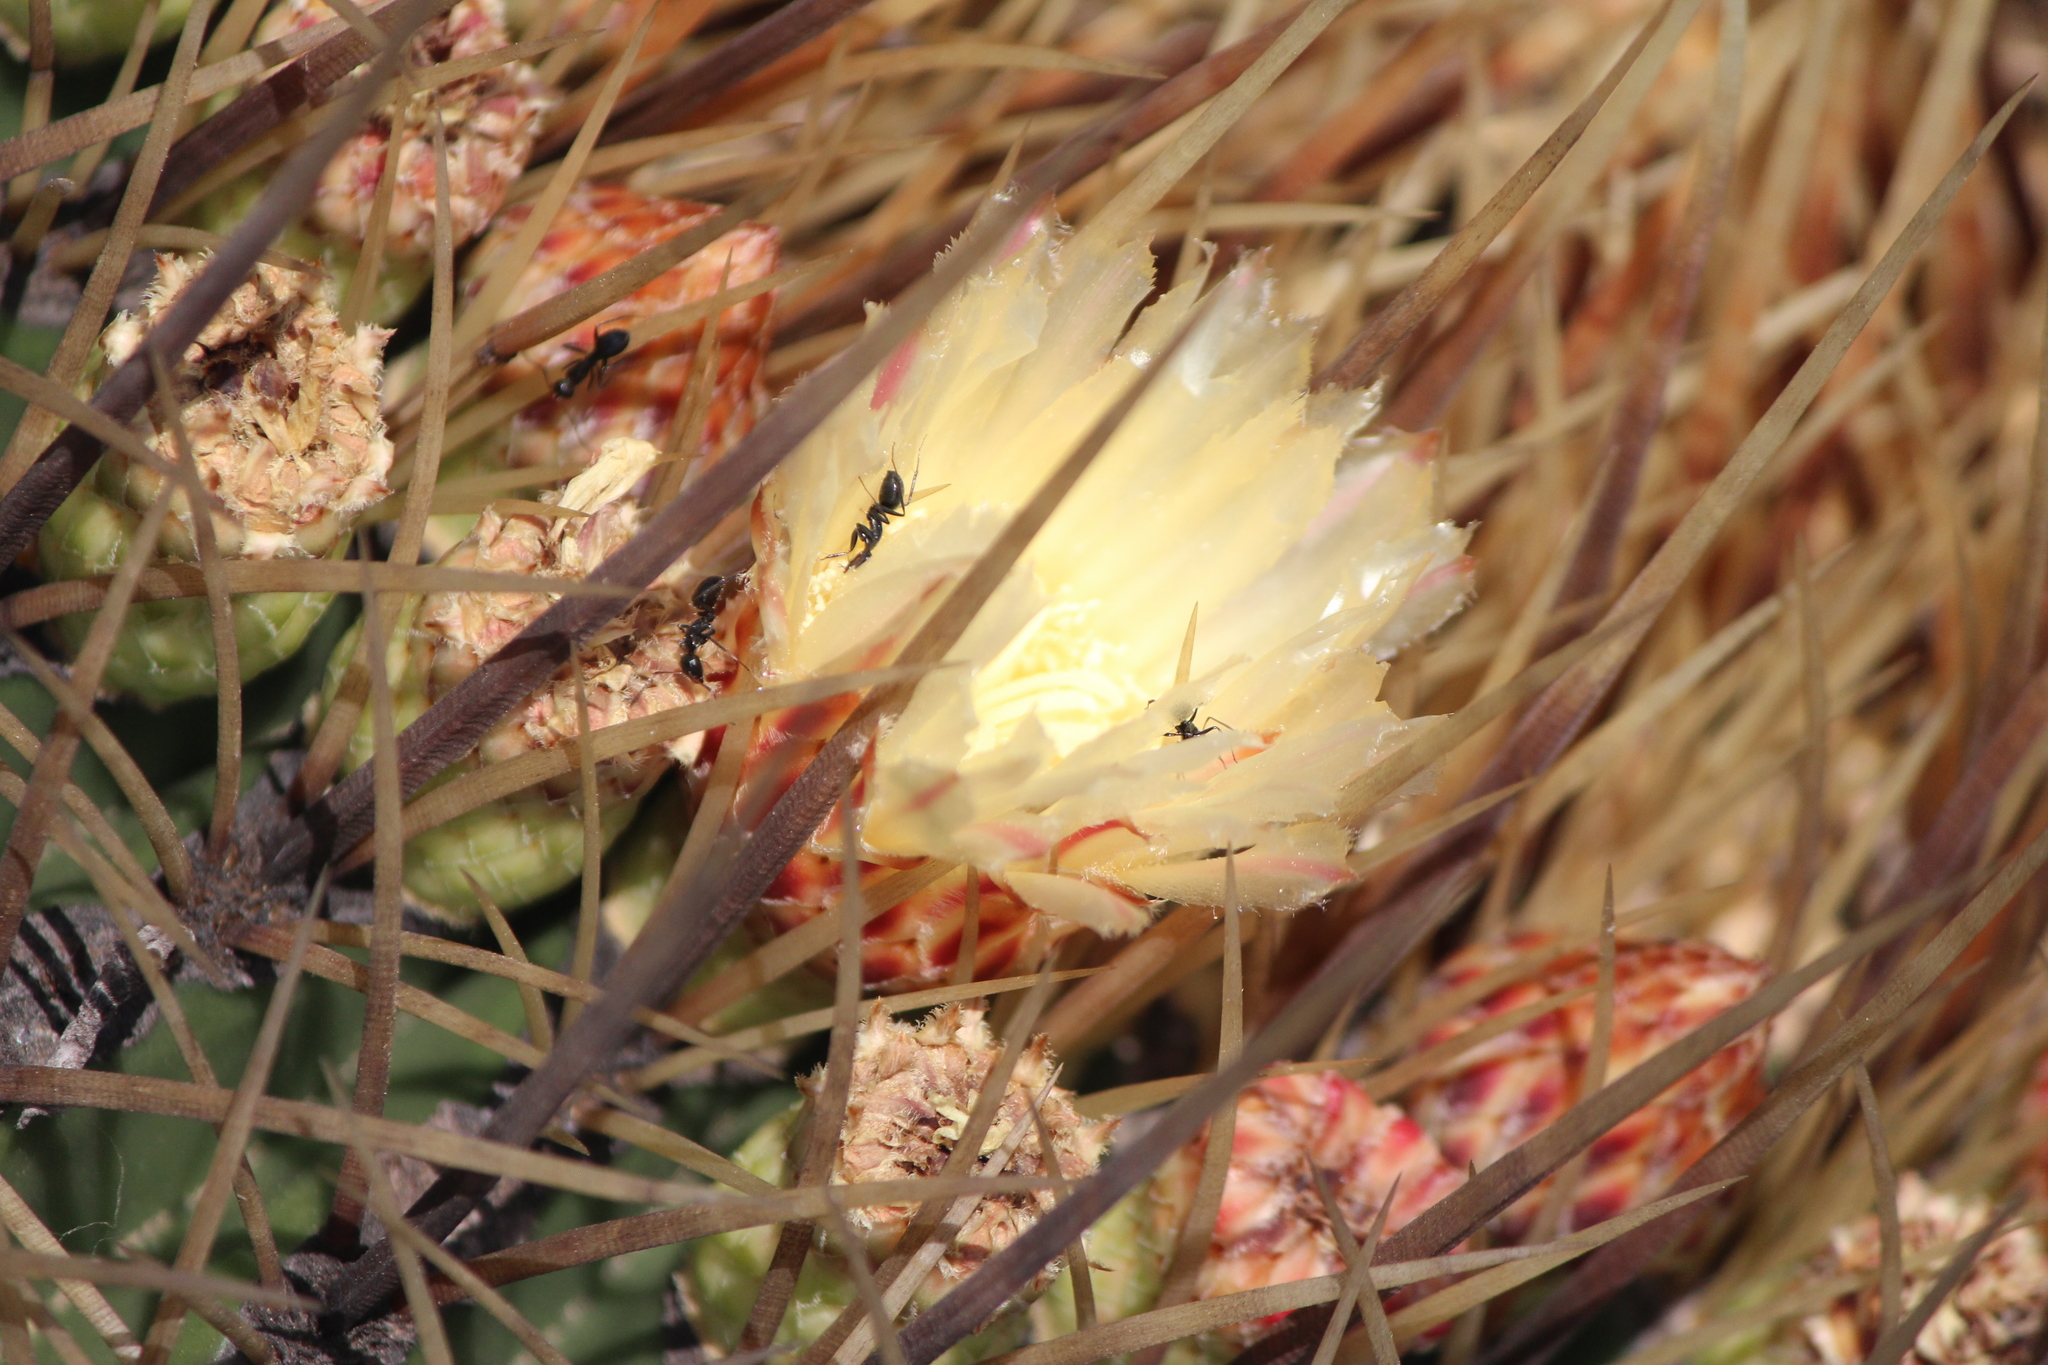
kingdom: Plantae
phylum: Tracheophyta
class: Magnoliopsida
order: Caryophyllales
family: Cactaceae
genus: Bisnaga
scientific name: Bisnaga histrix
